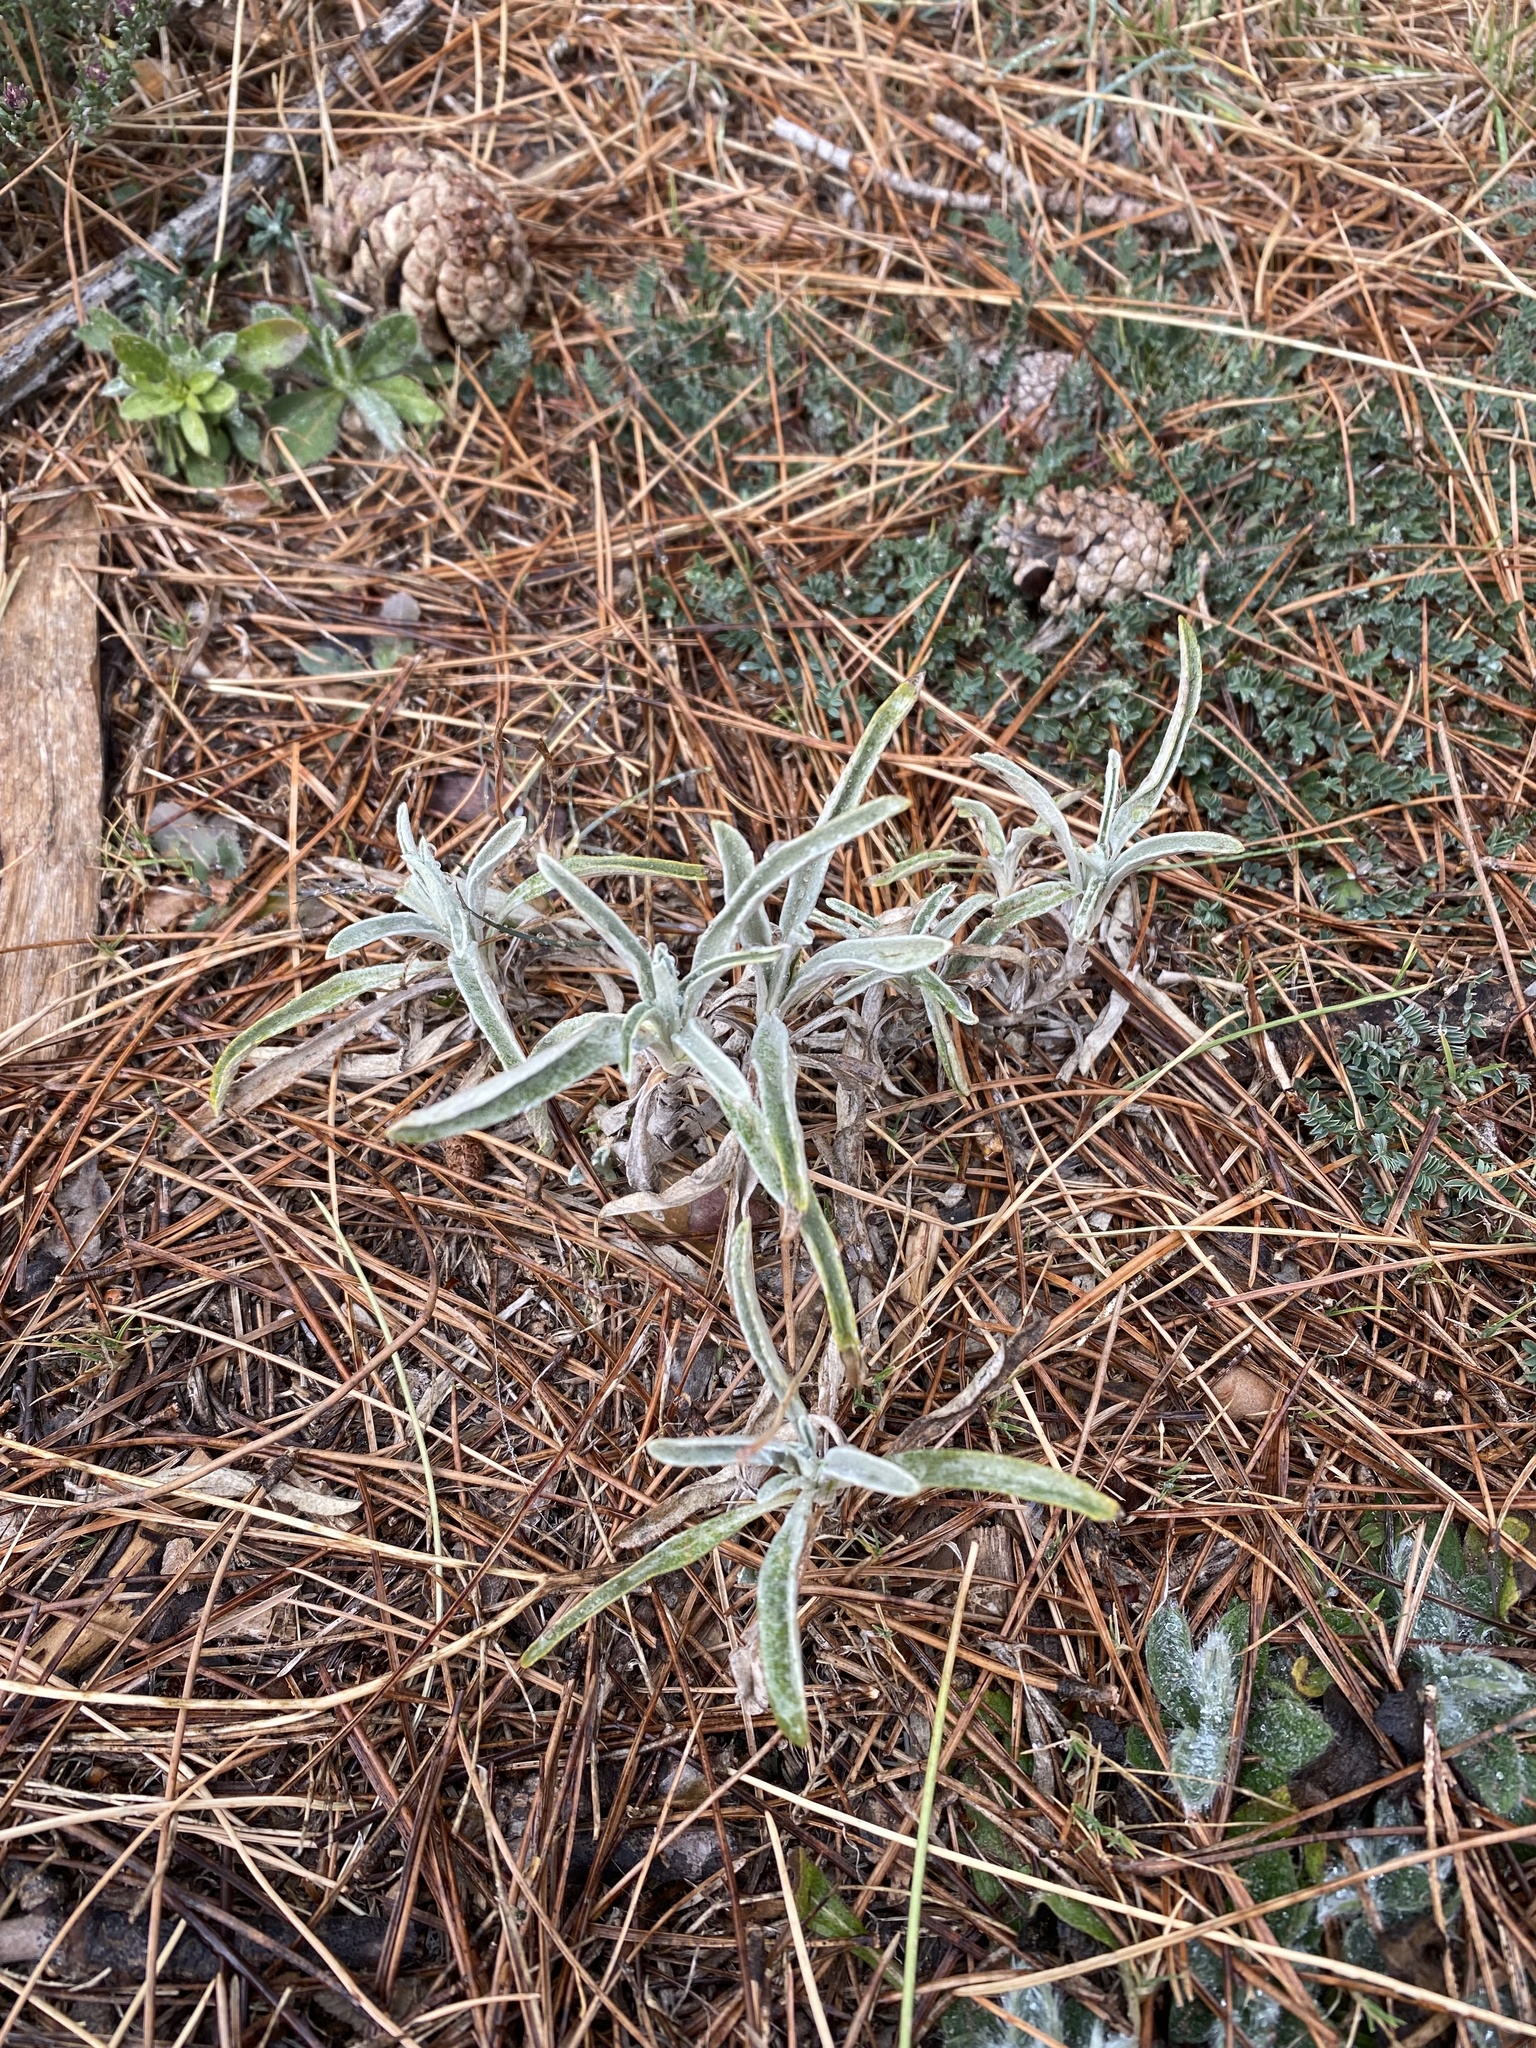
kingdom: Plantae
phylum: Tracheophyta
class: Magnoliopsida
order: Lamiales
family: Lamiaceae
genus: Phlomis
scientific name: Phlomis lychnitis
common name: Lampwickplant
